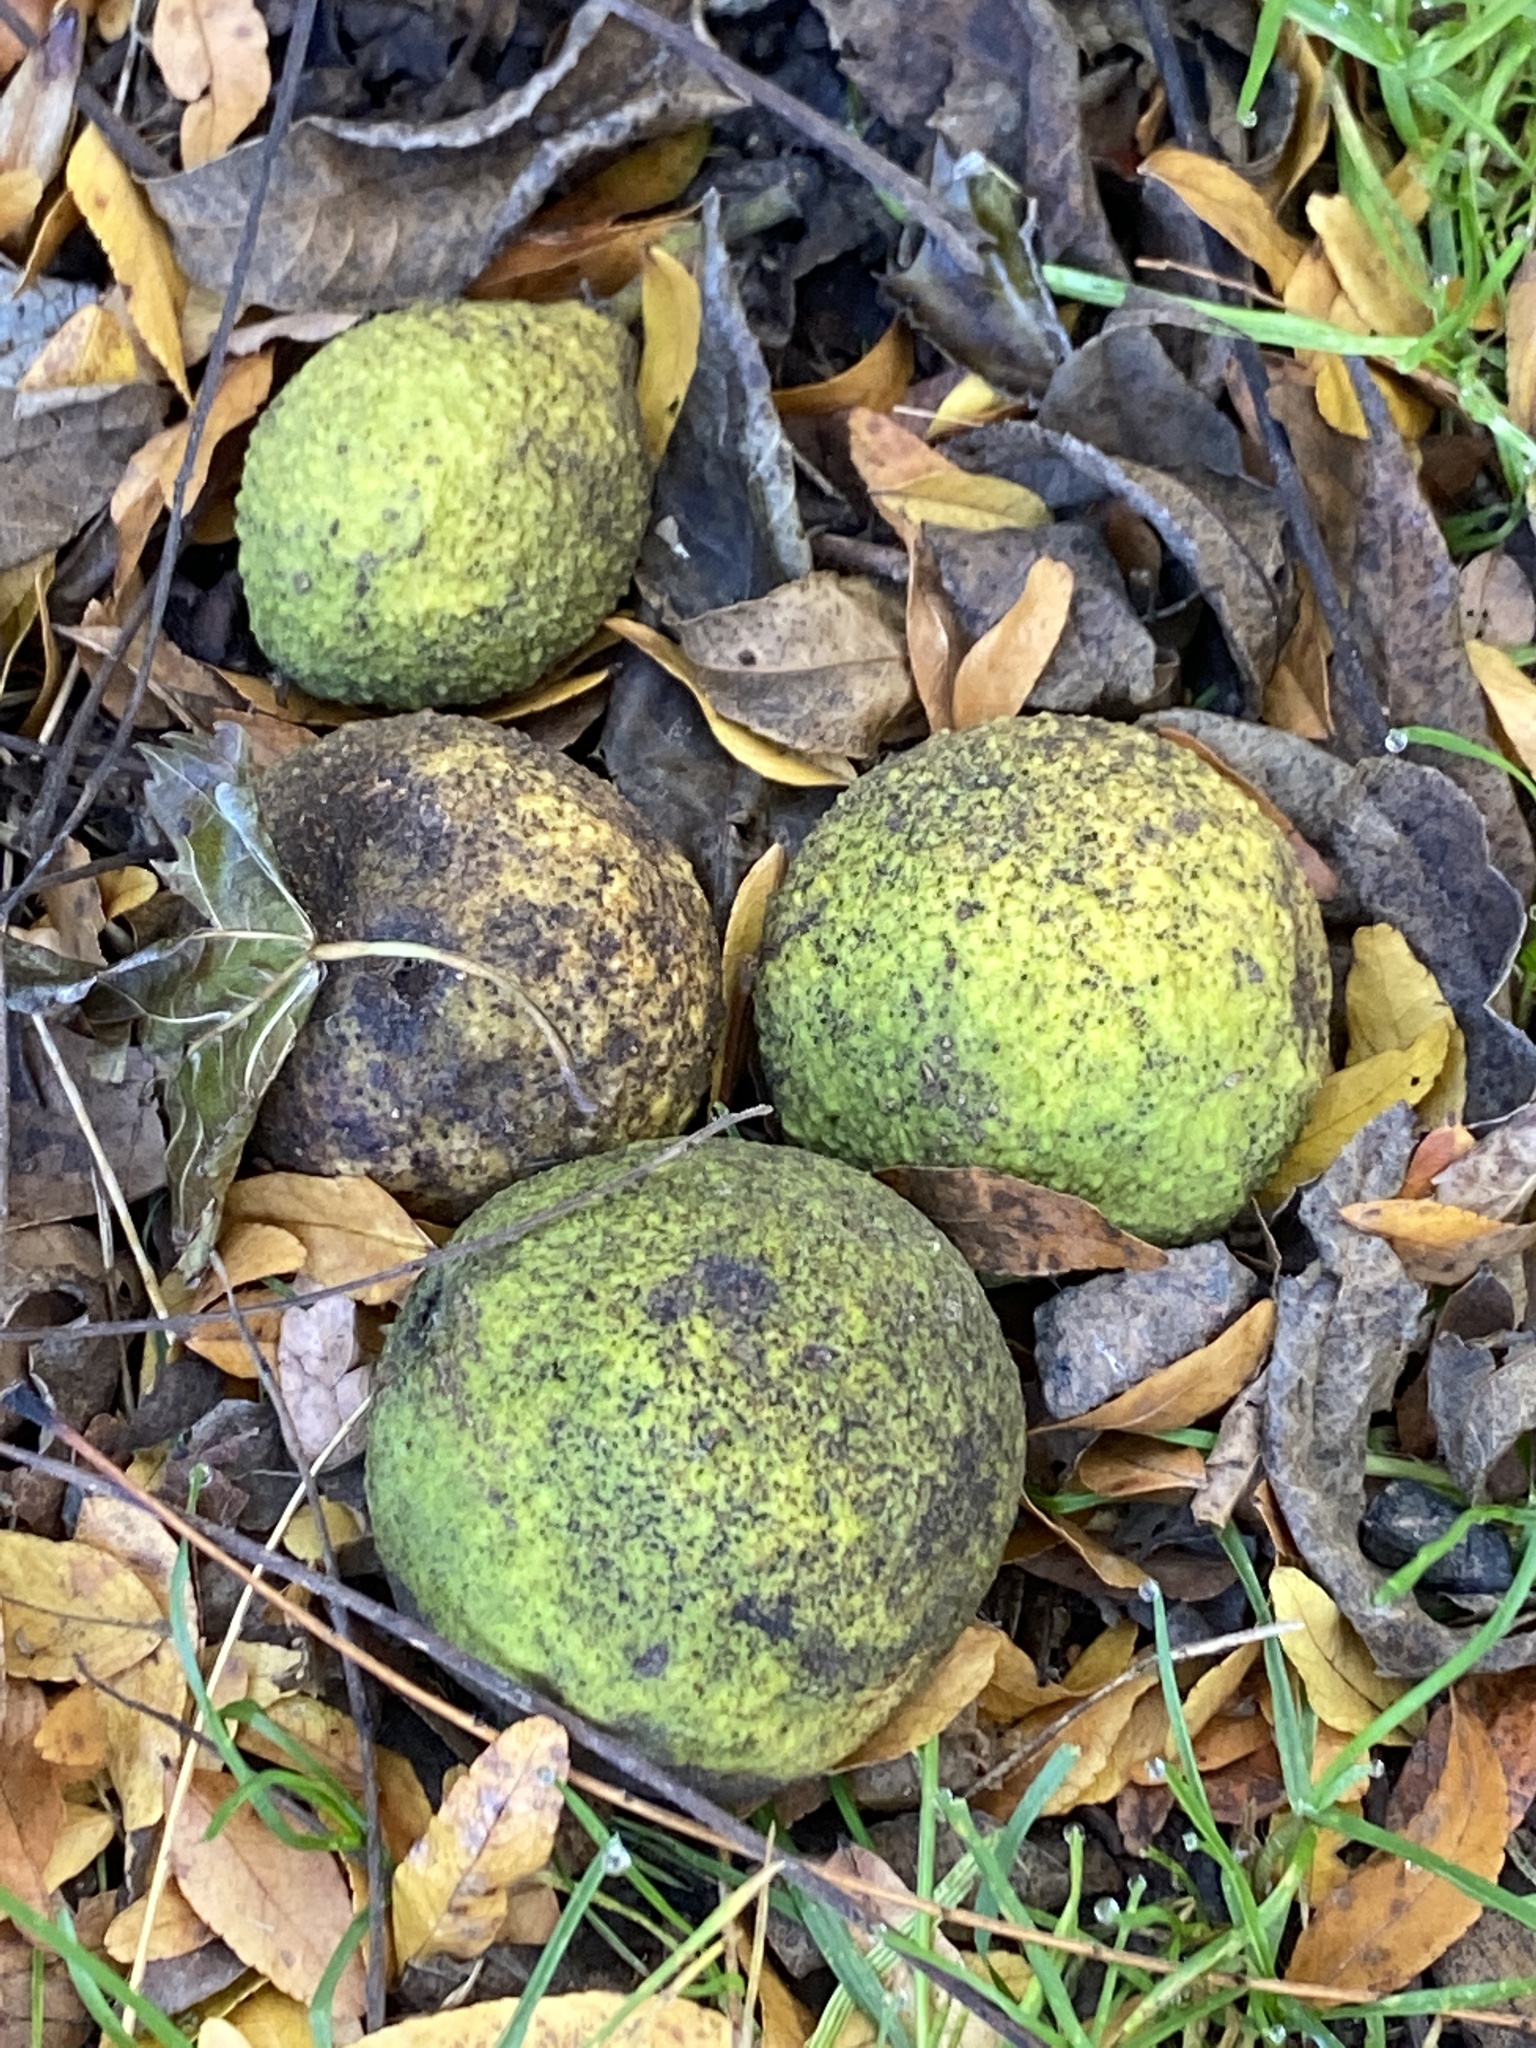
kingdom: Plantae
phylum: Tracheophyta
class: Magnoliopsida
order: Fagales
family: Juglandaceae
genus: Juglans
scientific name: Juglans nigra
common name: Black walnut
